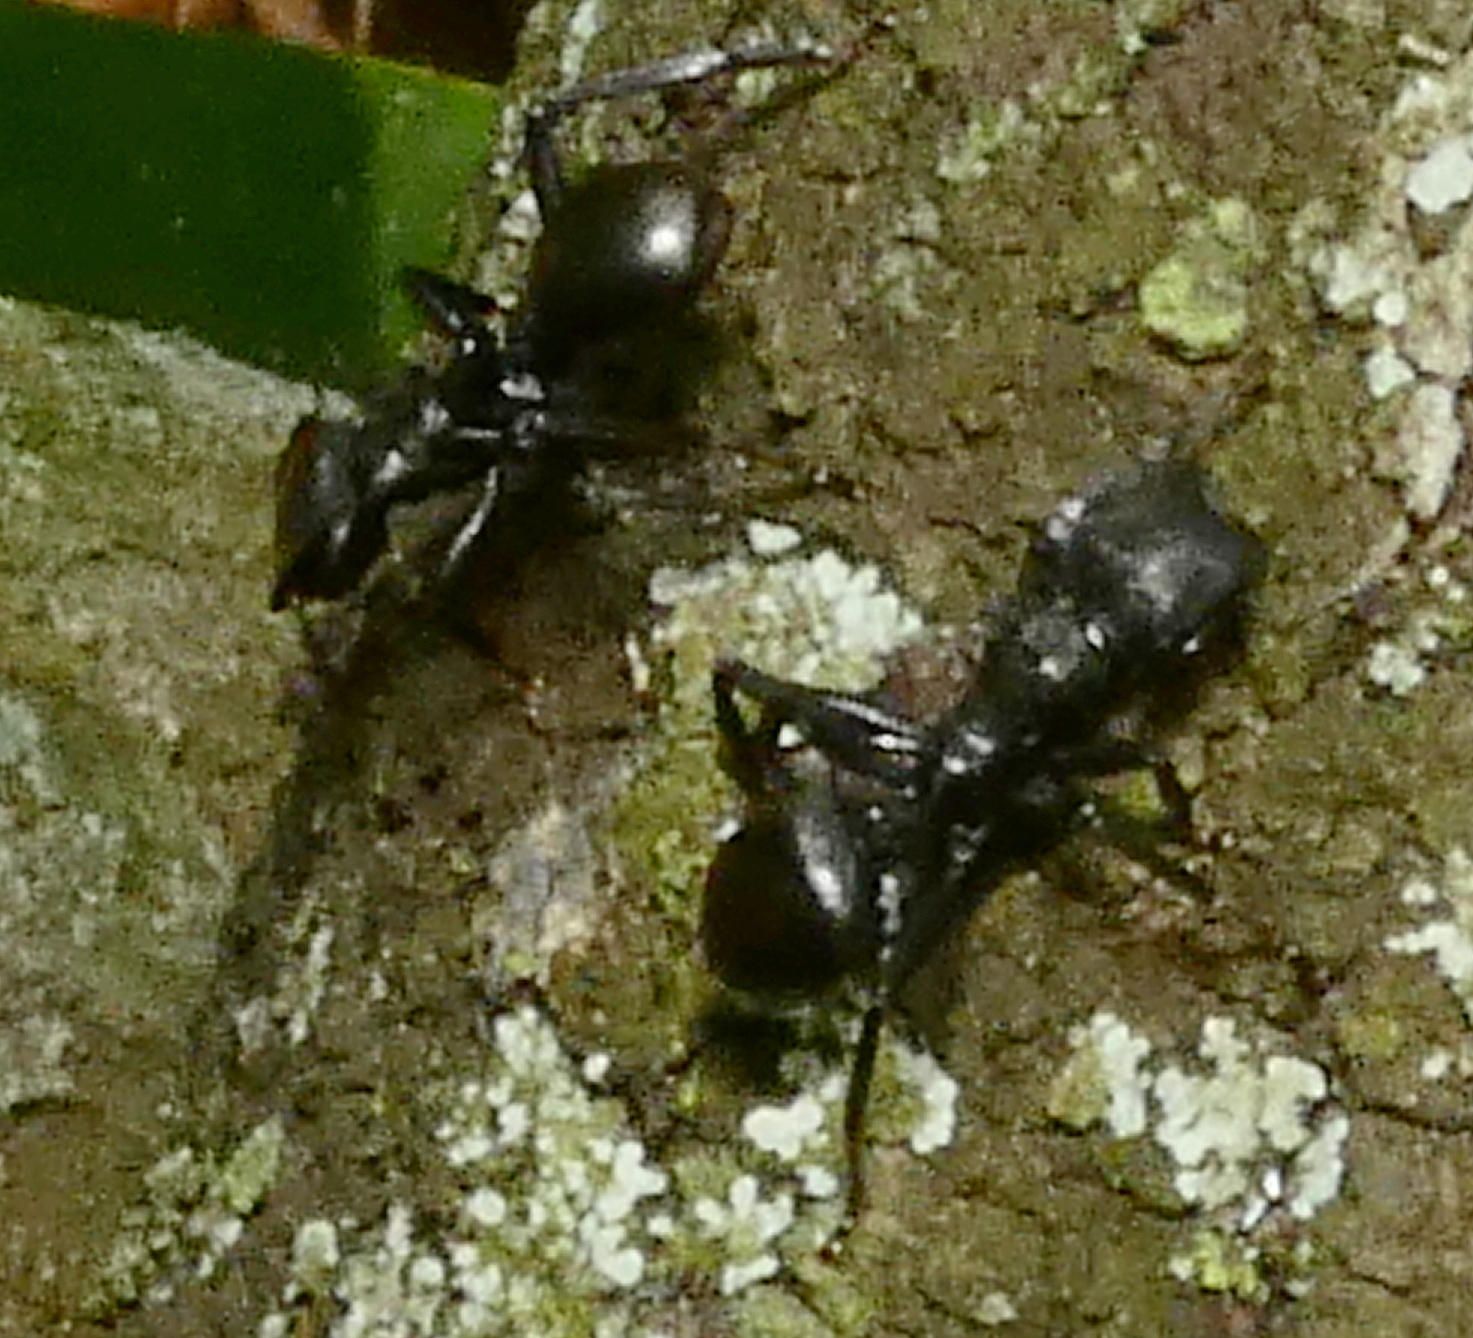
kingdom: Animalia
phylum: Arthropoda
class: Insecta
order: Hymenoptera
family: Formicidae
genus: Cephalotes
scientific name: Cephalotes atratus
